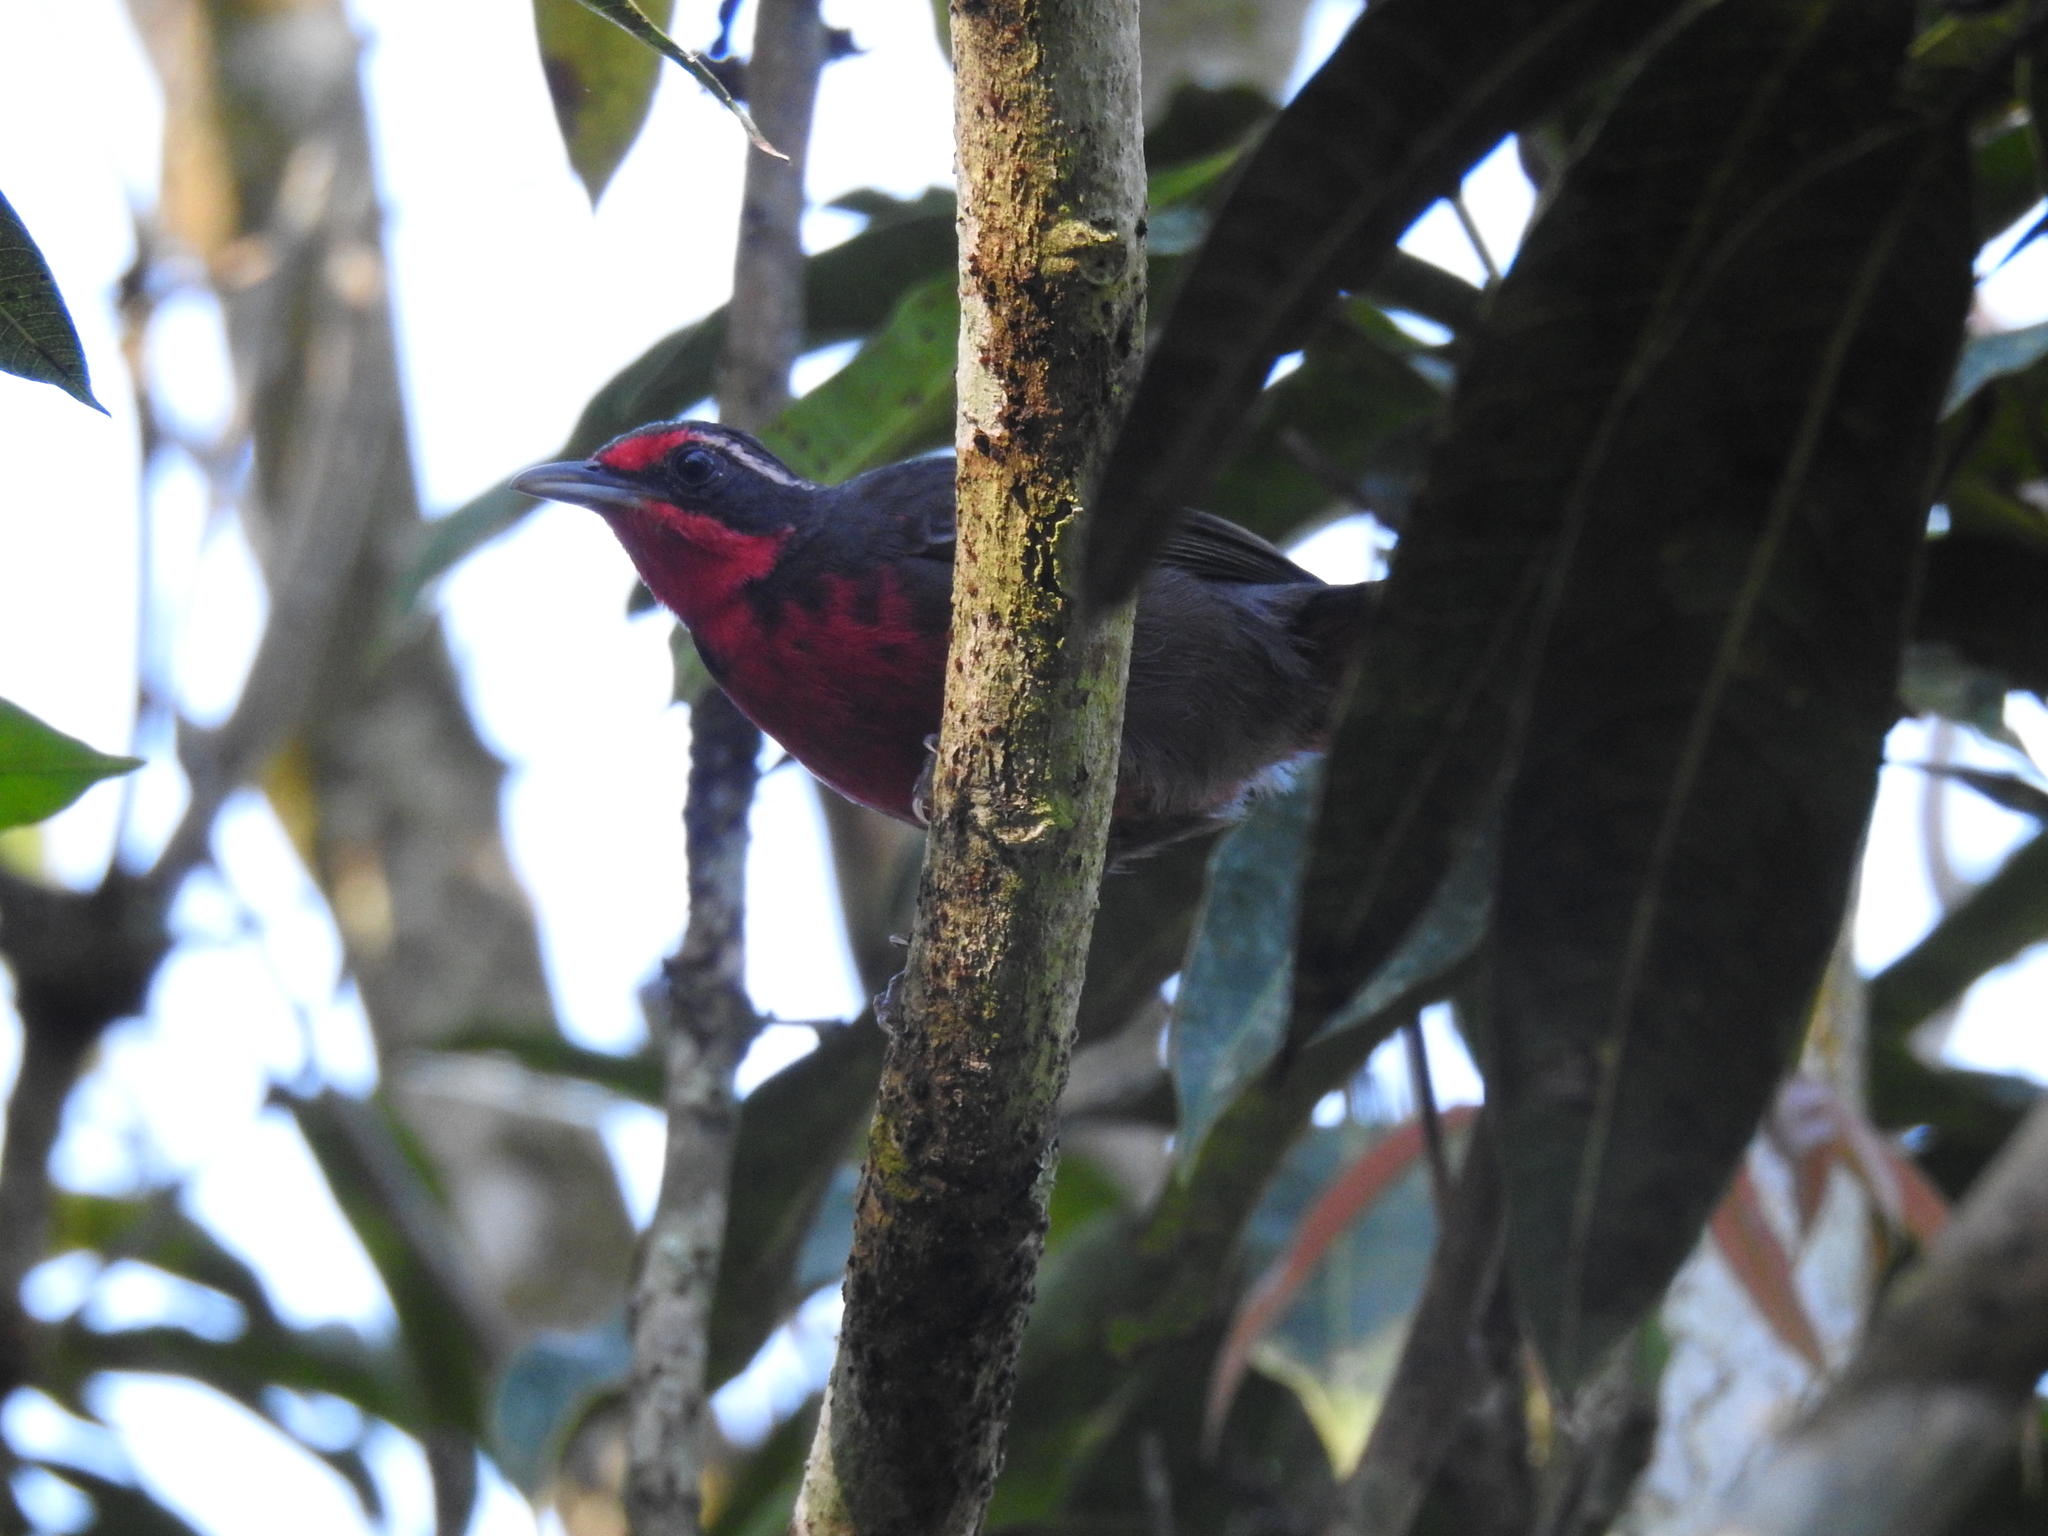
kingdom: Animalia
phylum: Chordata
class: Aves
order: Passeriformes
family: Rhodinocichlidae
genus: Rhodinocichla
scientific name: Rhodinocichla rosea
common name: Rosy thrush-tanager
